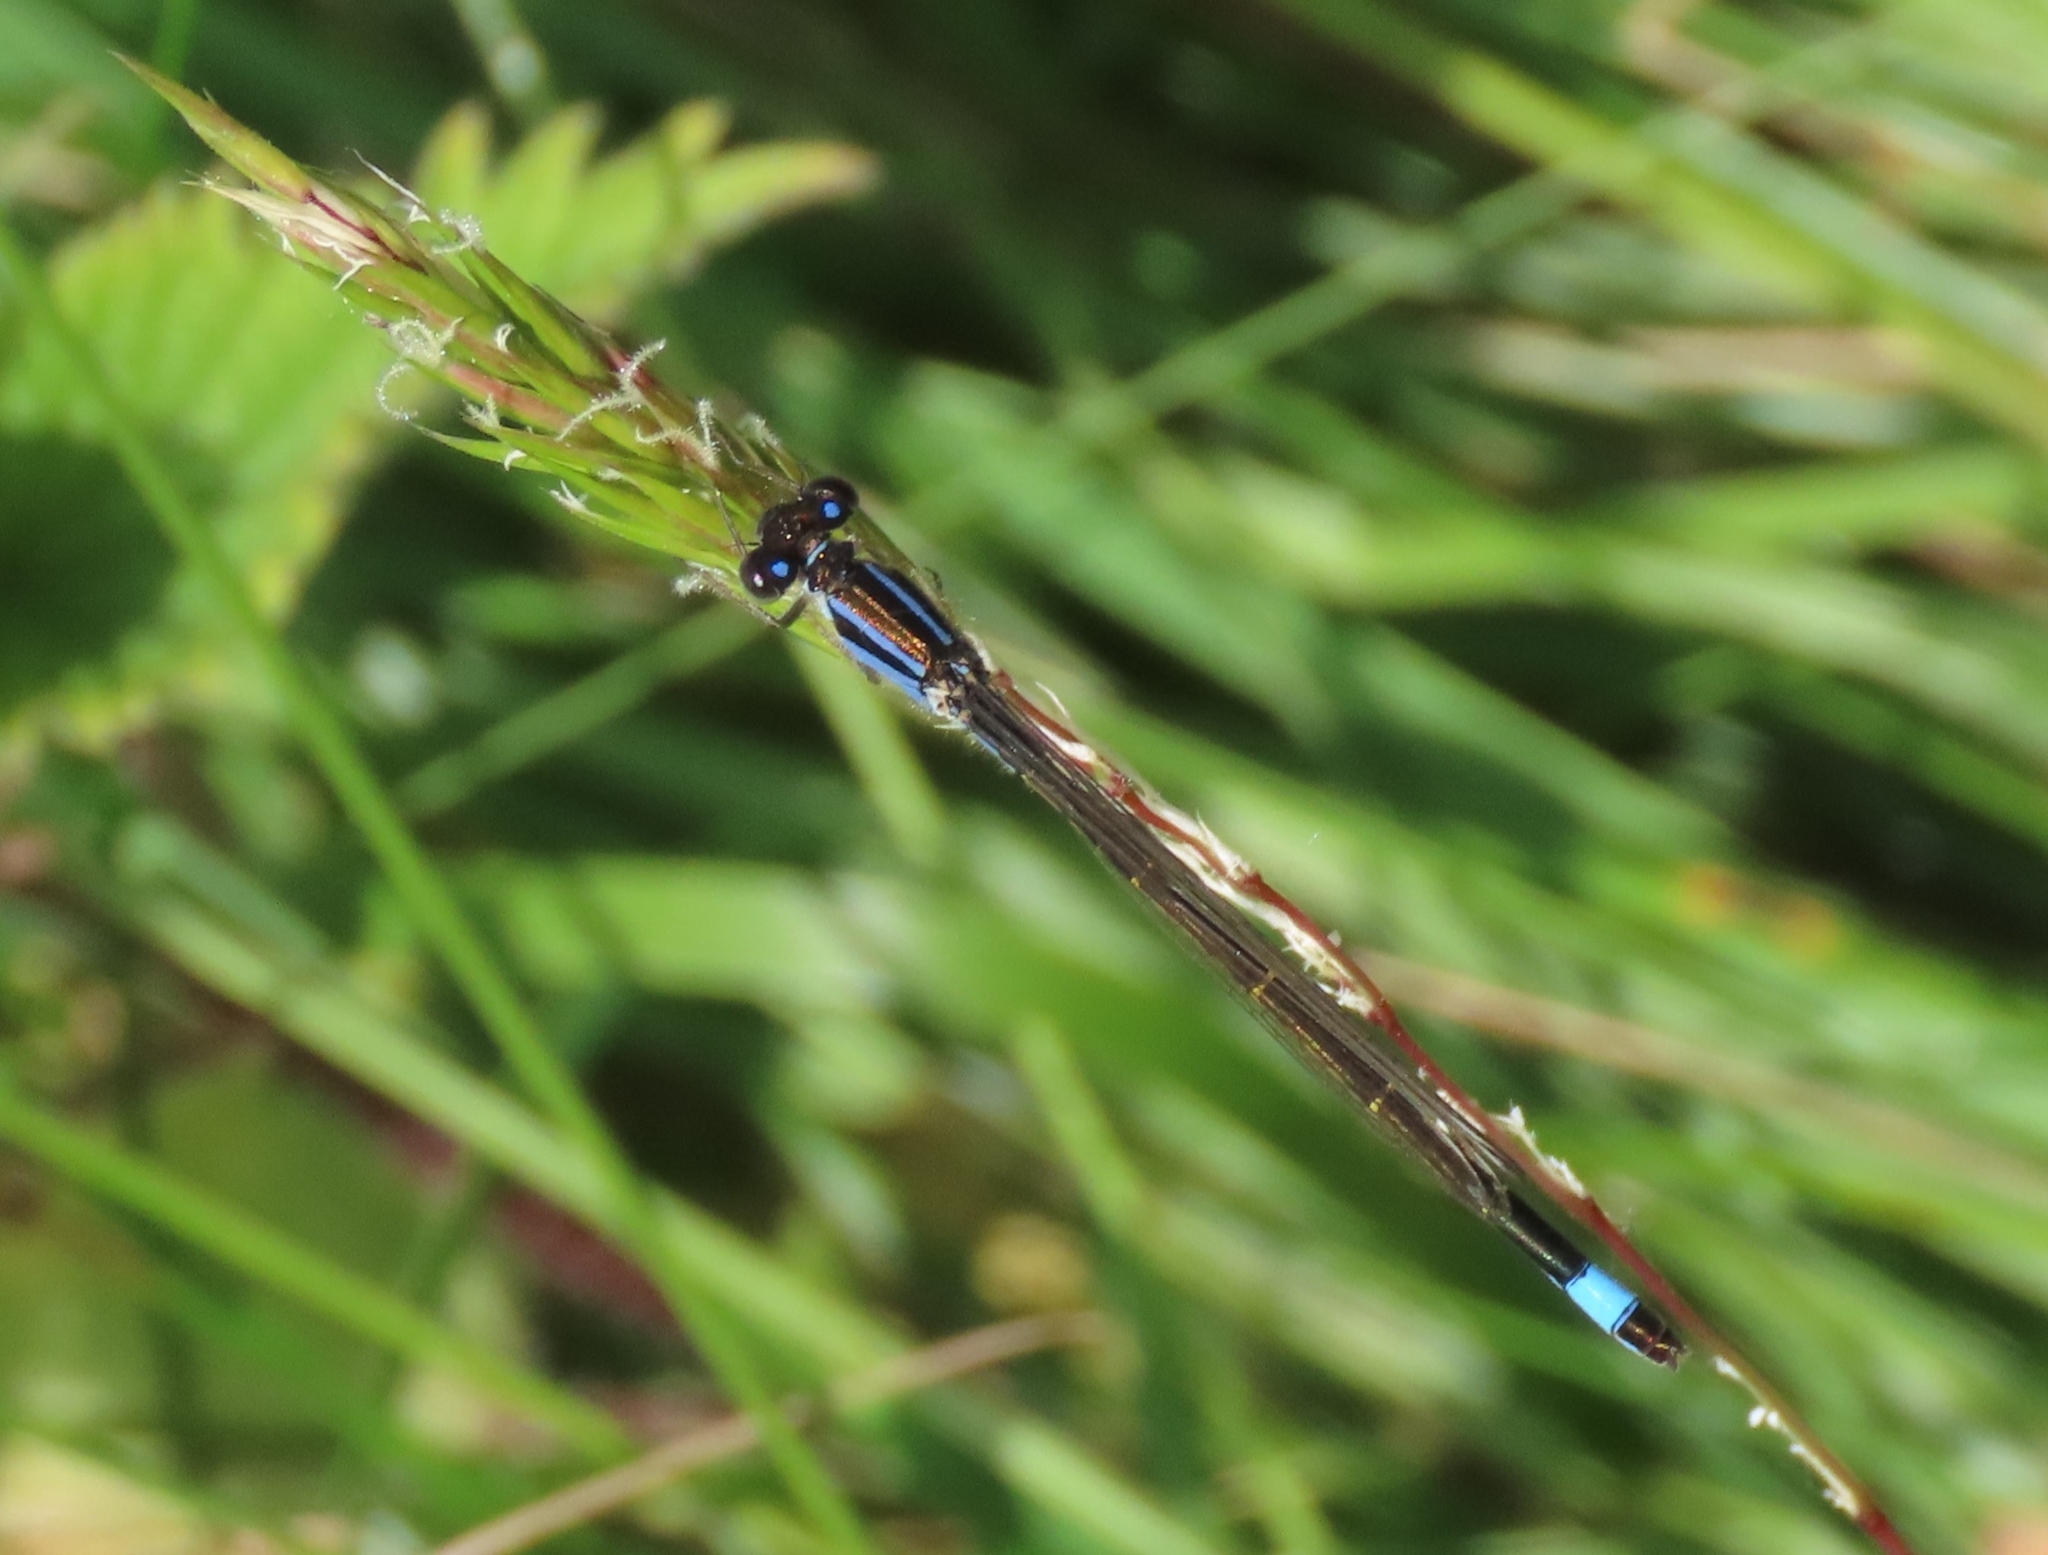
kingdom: Animalia
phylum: Arthropoda
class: Insecta
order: Odonata
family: Coenagrionidae
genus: Ischnura
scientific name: Ischnura elegans
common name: Blue-tailed damselfly
